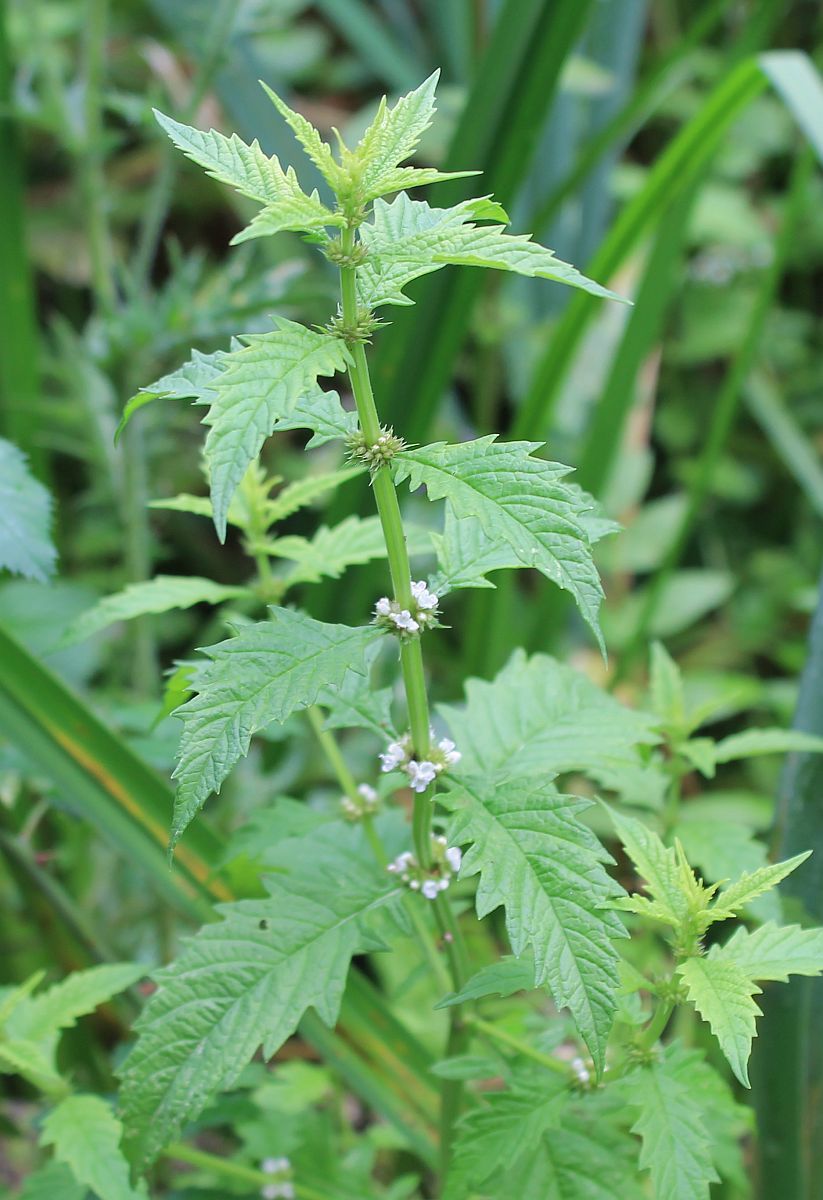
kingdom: Plantae
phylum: Tracheophyta
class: Magnoliopsida
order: Lamiales
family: Lamiaceae
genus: Lycopus
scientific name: Lycopus europaeus
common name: European bugleweed
